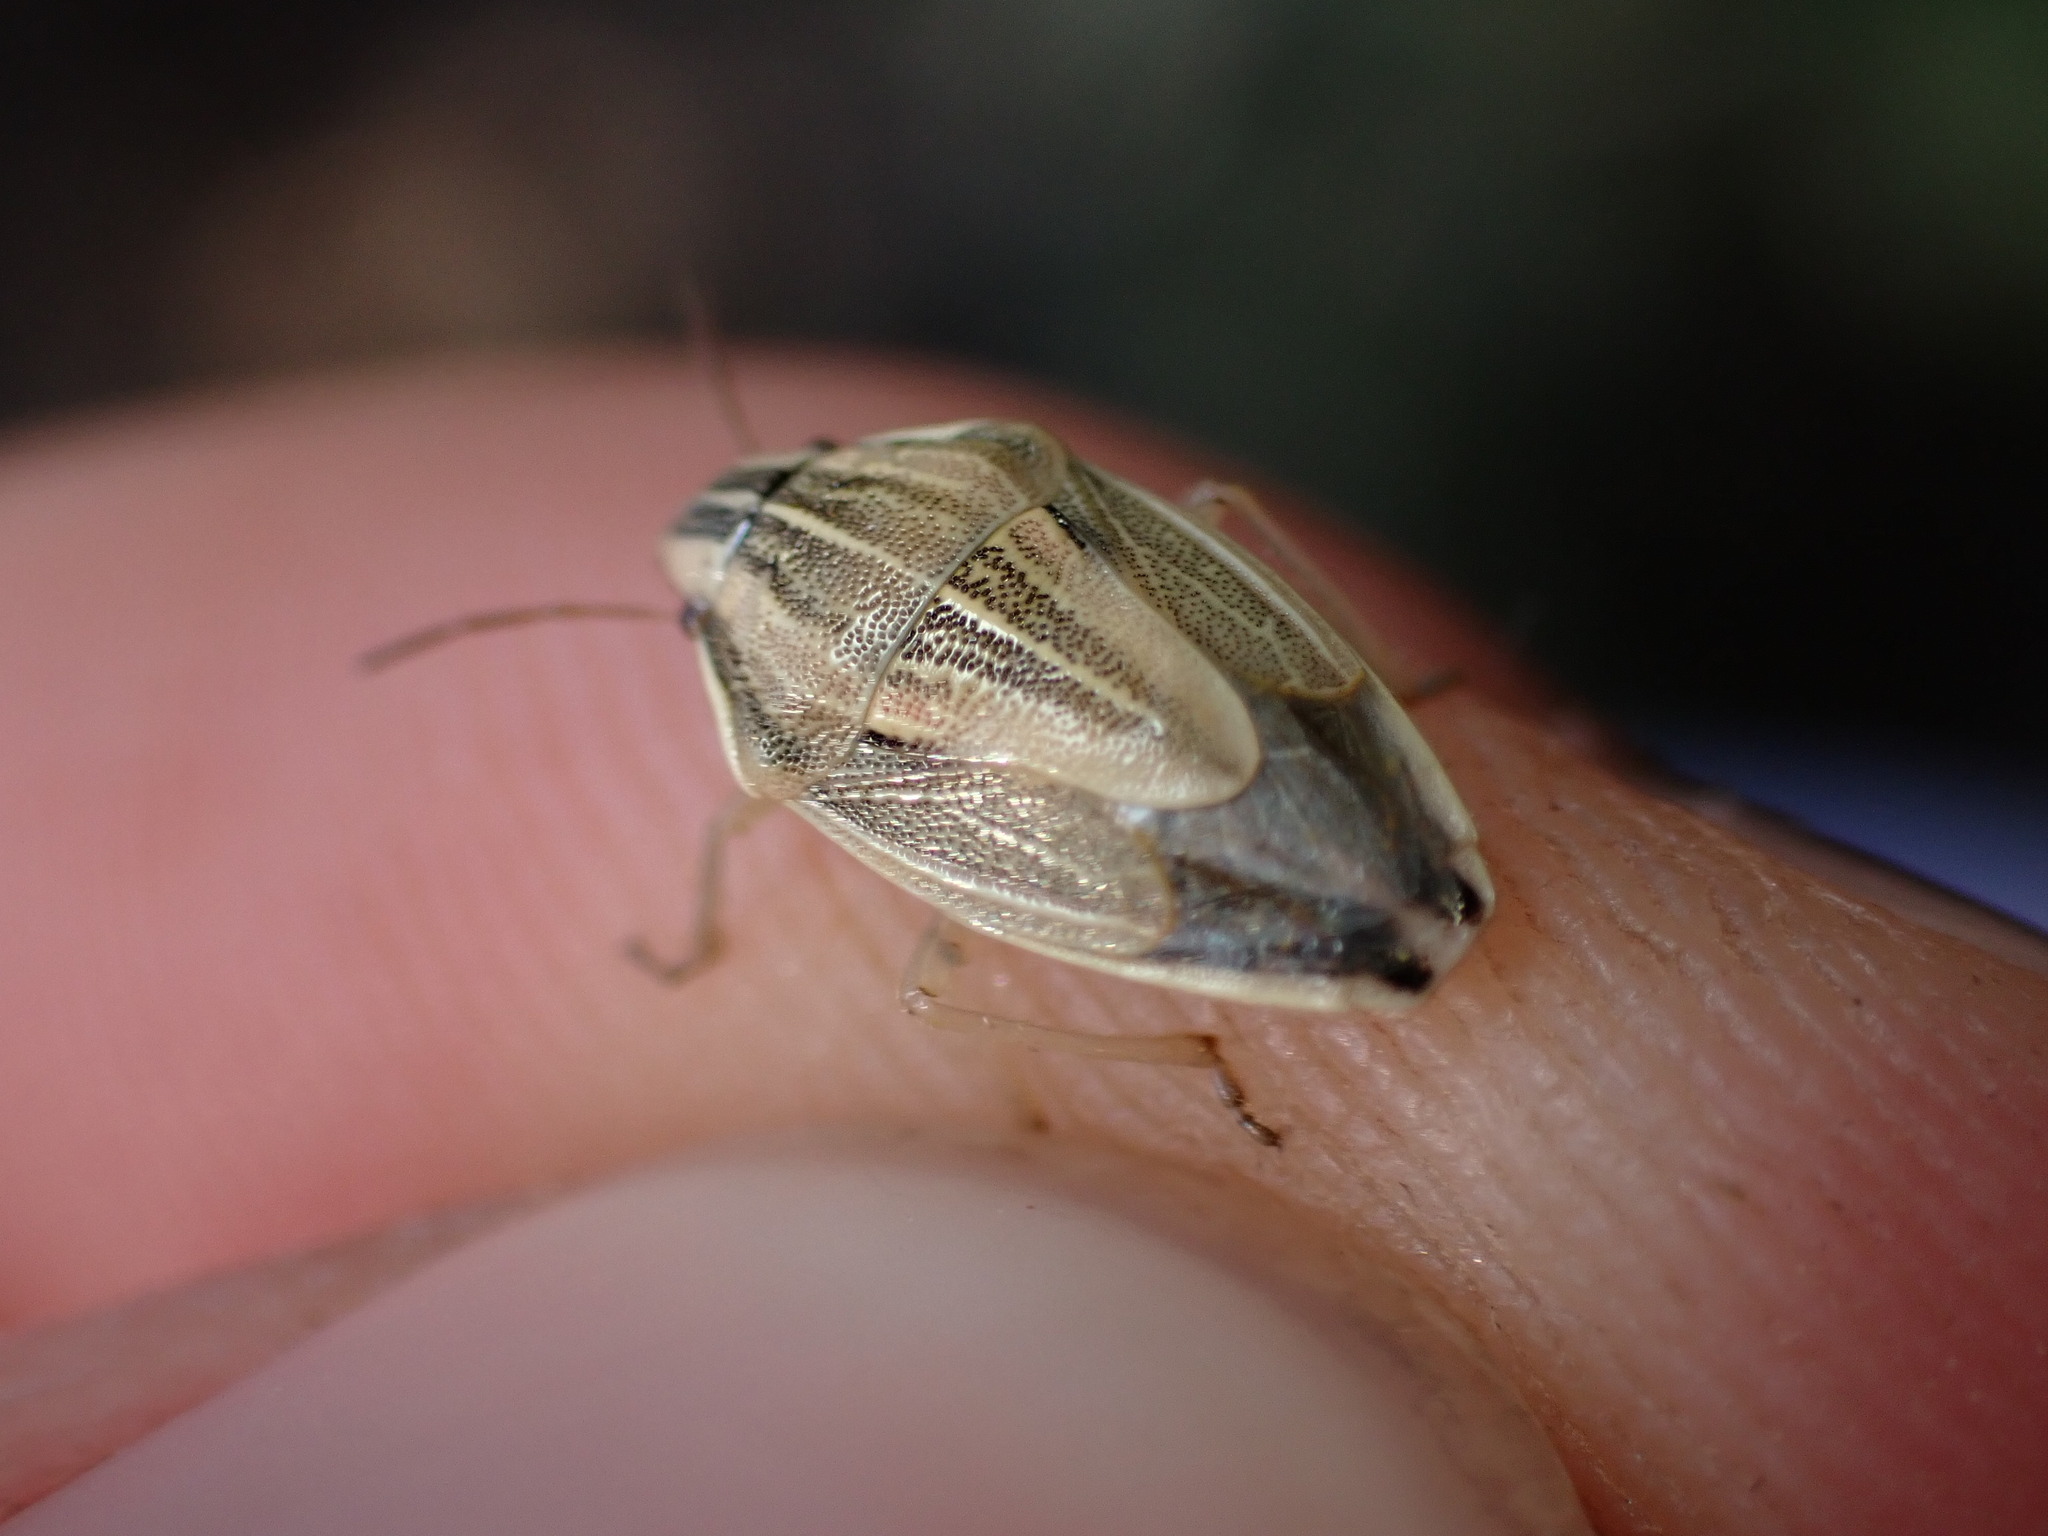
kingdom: Animalia
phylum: Arthropoda
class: Insecta
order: Hemiptera
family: Pentatomidae
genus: Aelia
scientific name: Aelia acuminata
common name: Bishop's mitre
